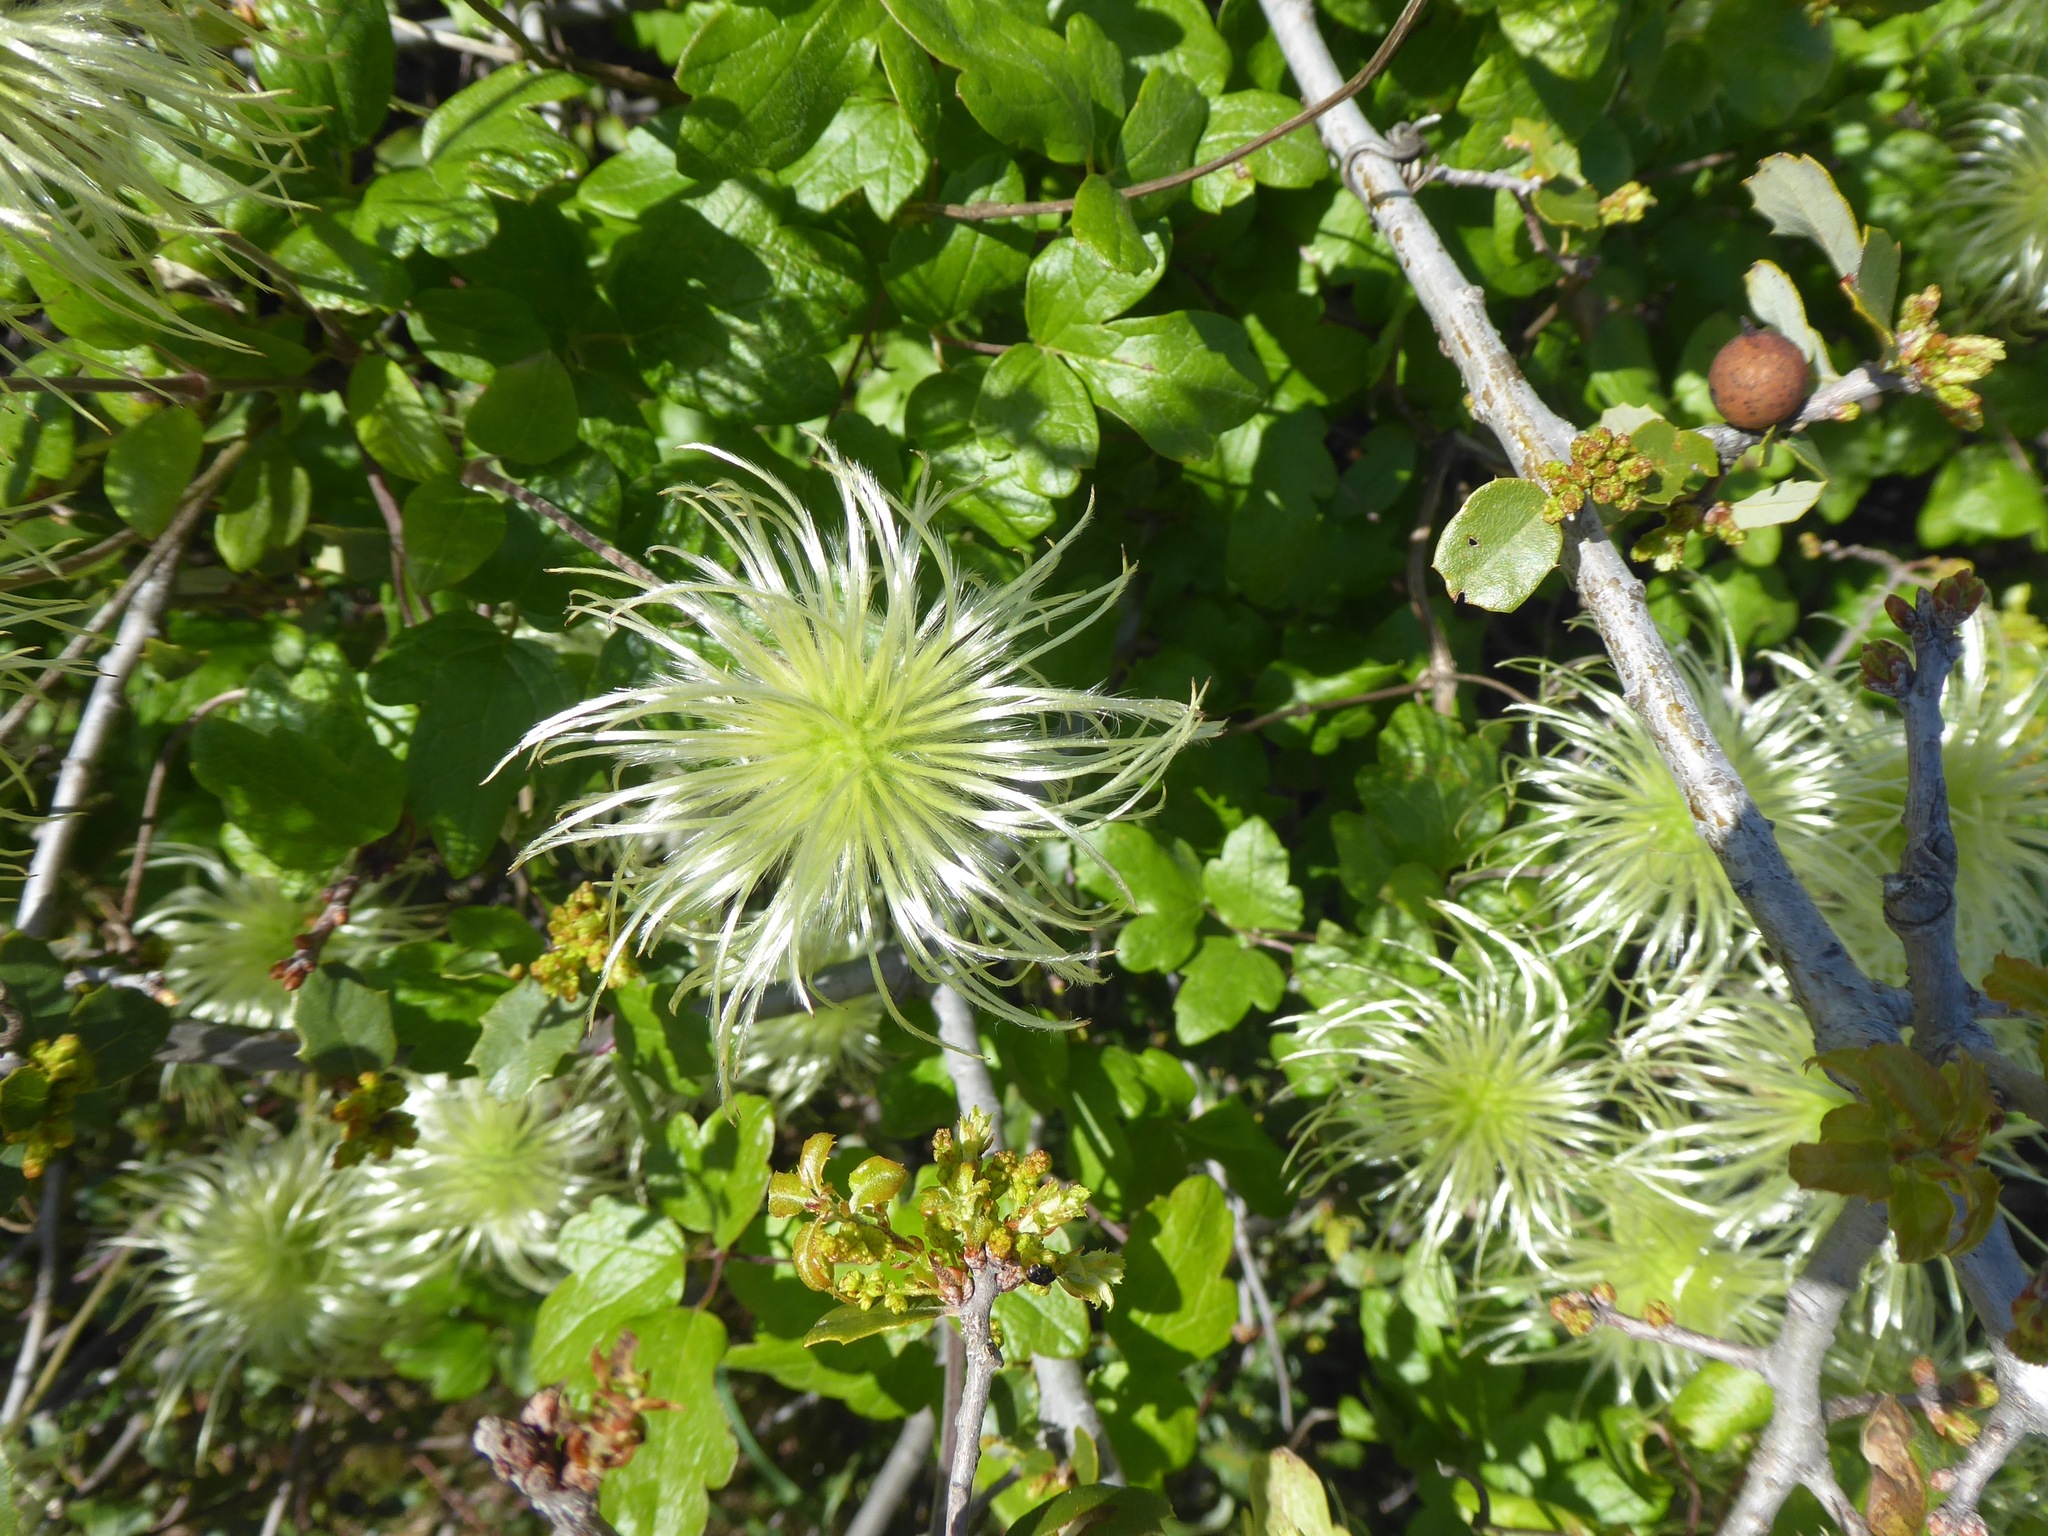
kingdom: Plantae
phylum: Tracheophyta
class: Magnoliopsida
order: Ranunculales
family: Ranunculaceae
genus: Clematis
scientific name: Clematis lasiantha
